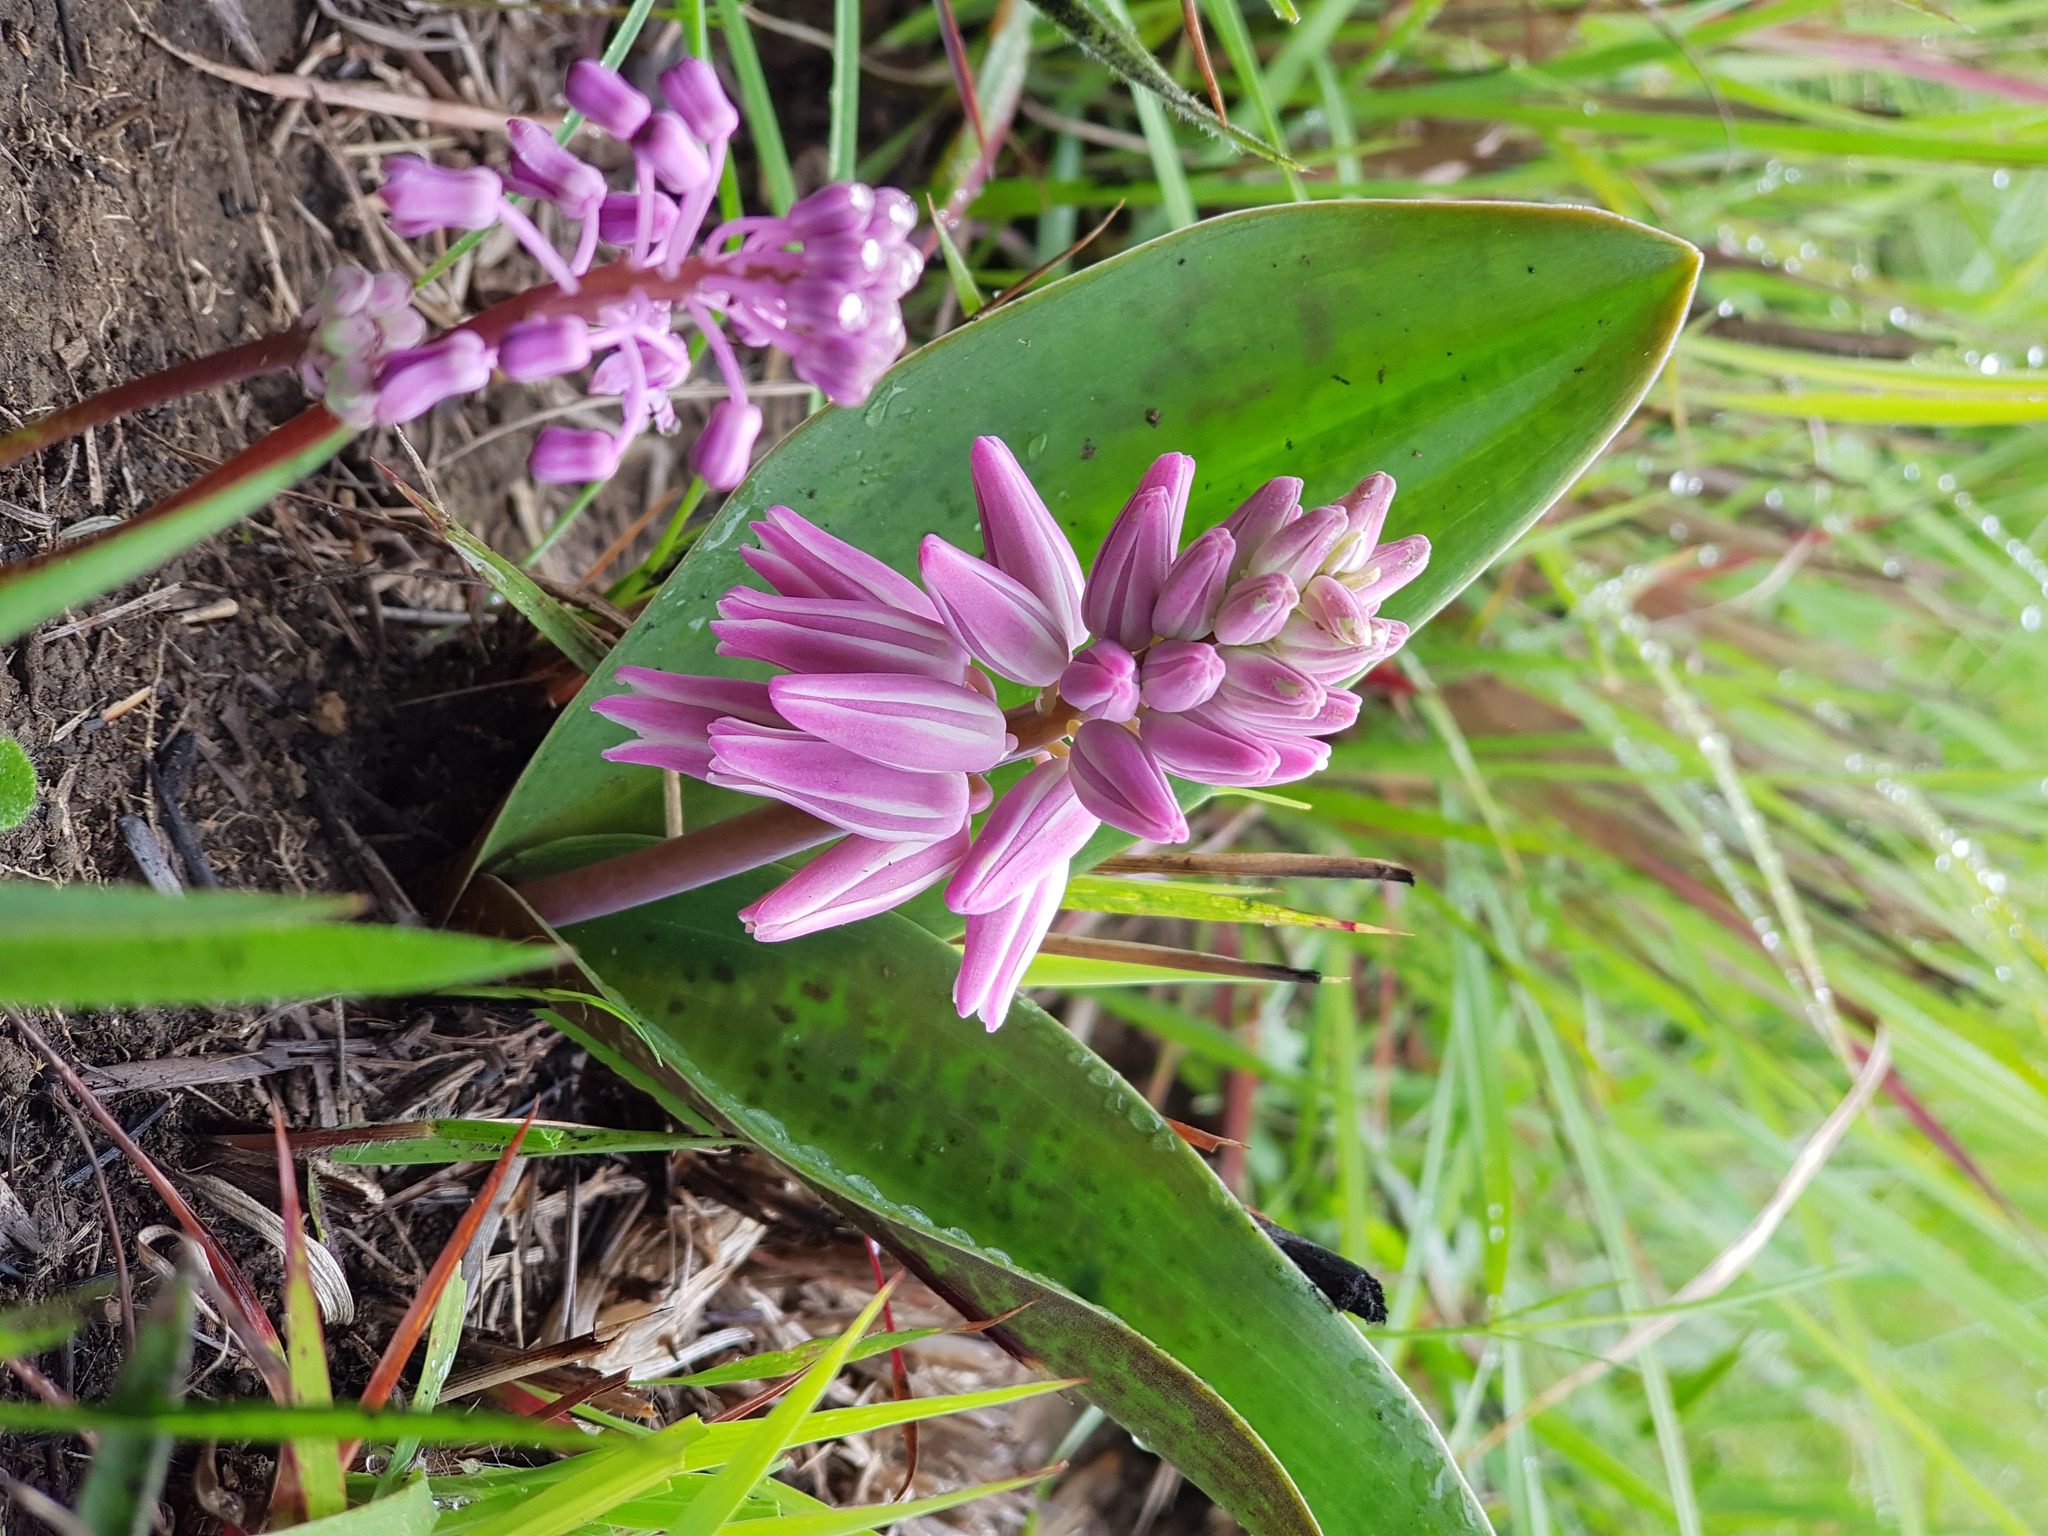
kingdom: Plantae
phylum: Tracheophyta
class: Liliopsida
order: Asparagales
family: Asparagaceae
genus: Resnova
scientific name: Resnova lachenalioides
